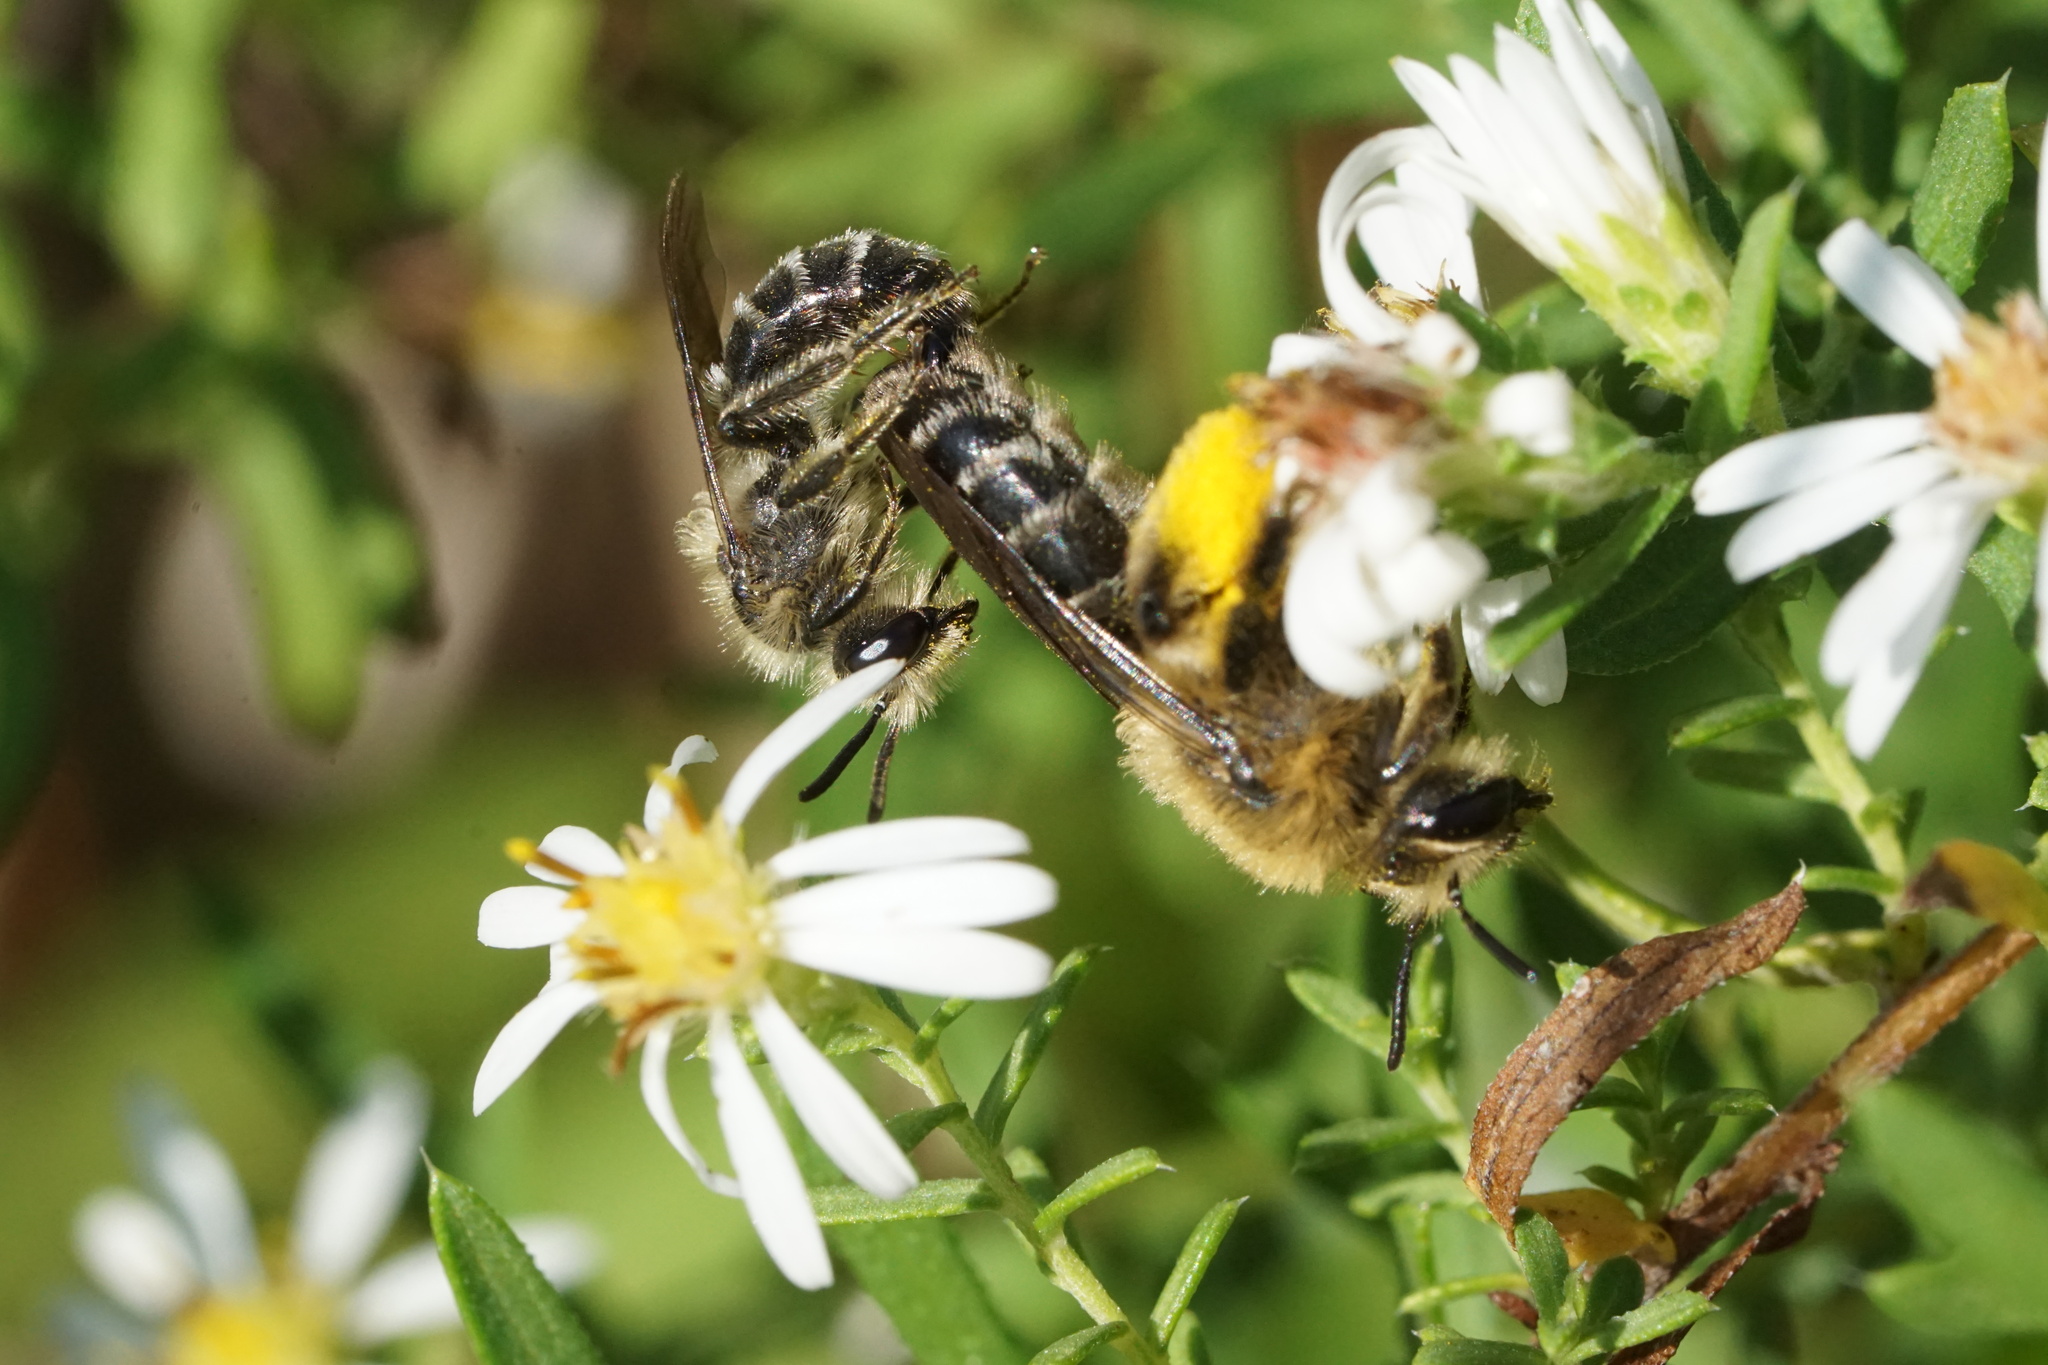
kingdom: Animalia
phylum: Arthropoda
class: Insecta
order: Hymenoptera
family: Andrenidae
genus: Andrena
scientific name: Andrena asteris
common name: Aster mining bee
